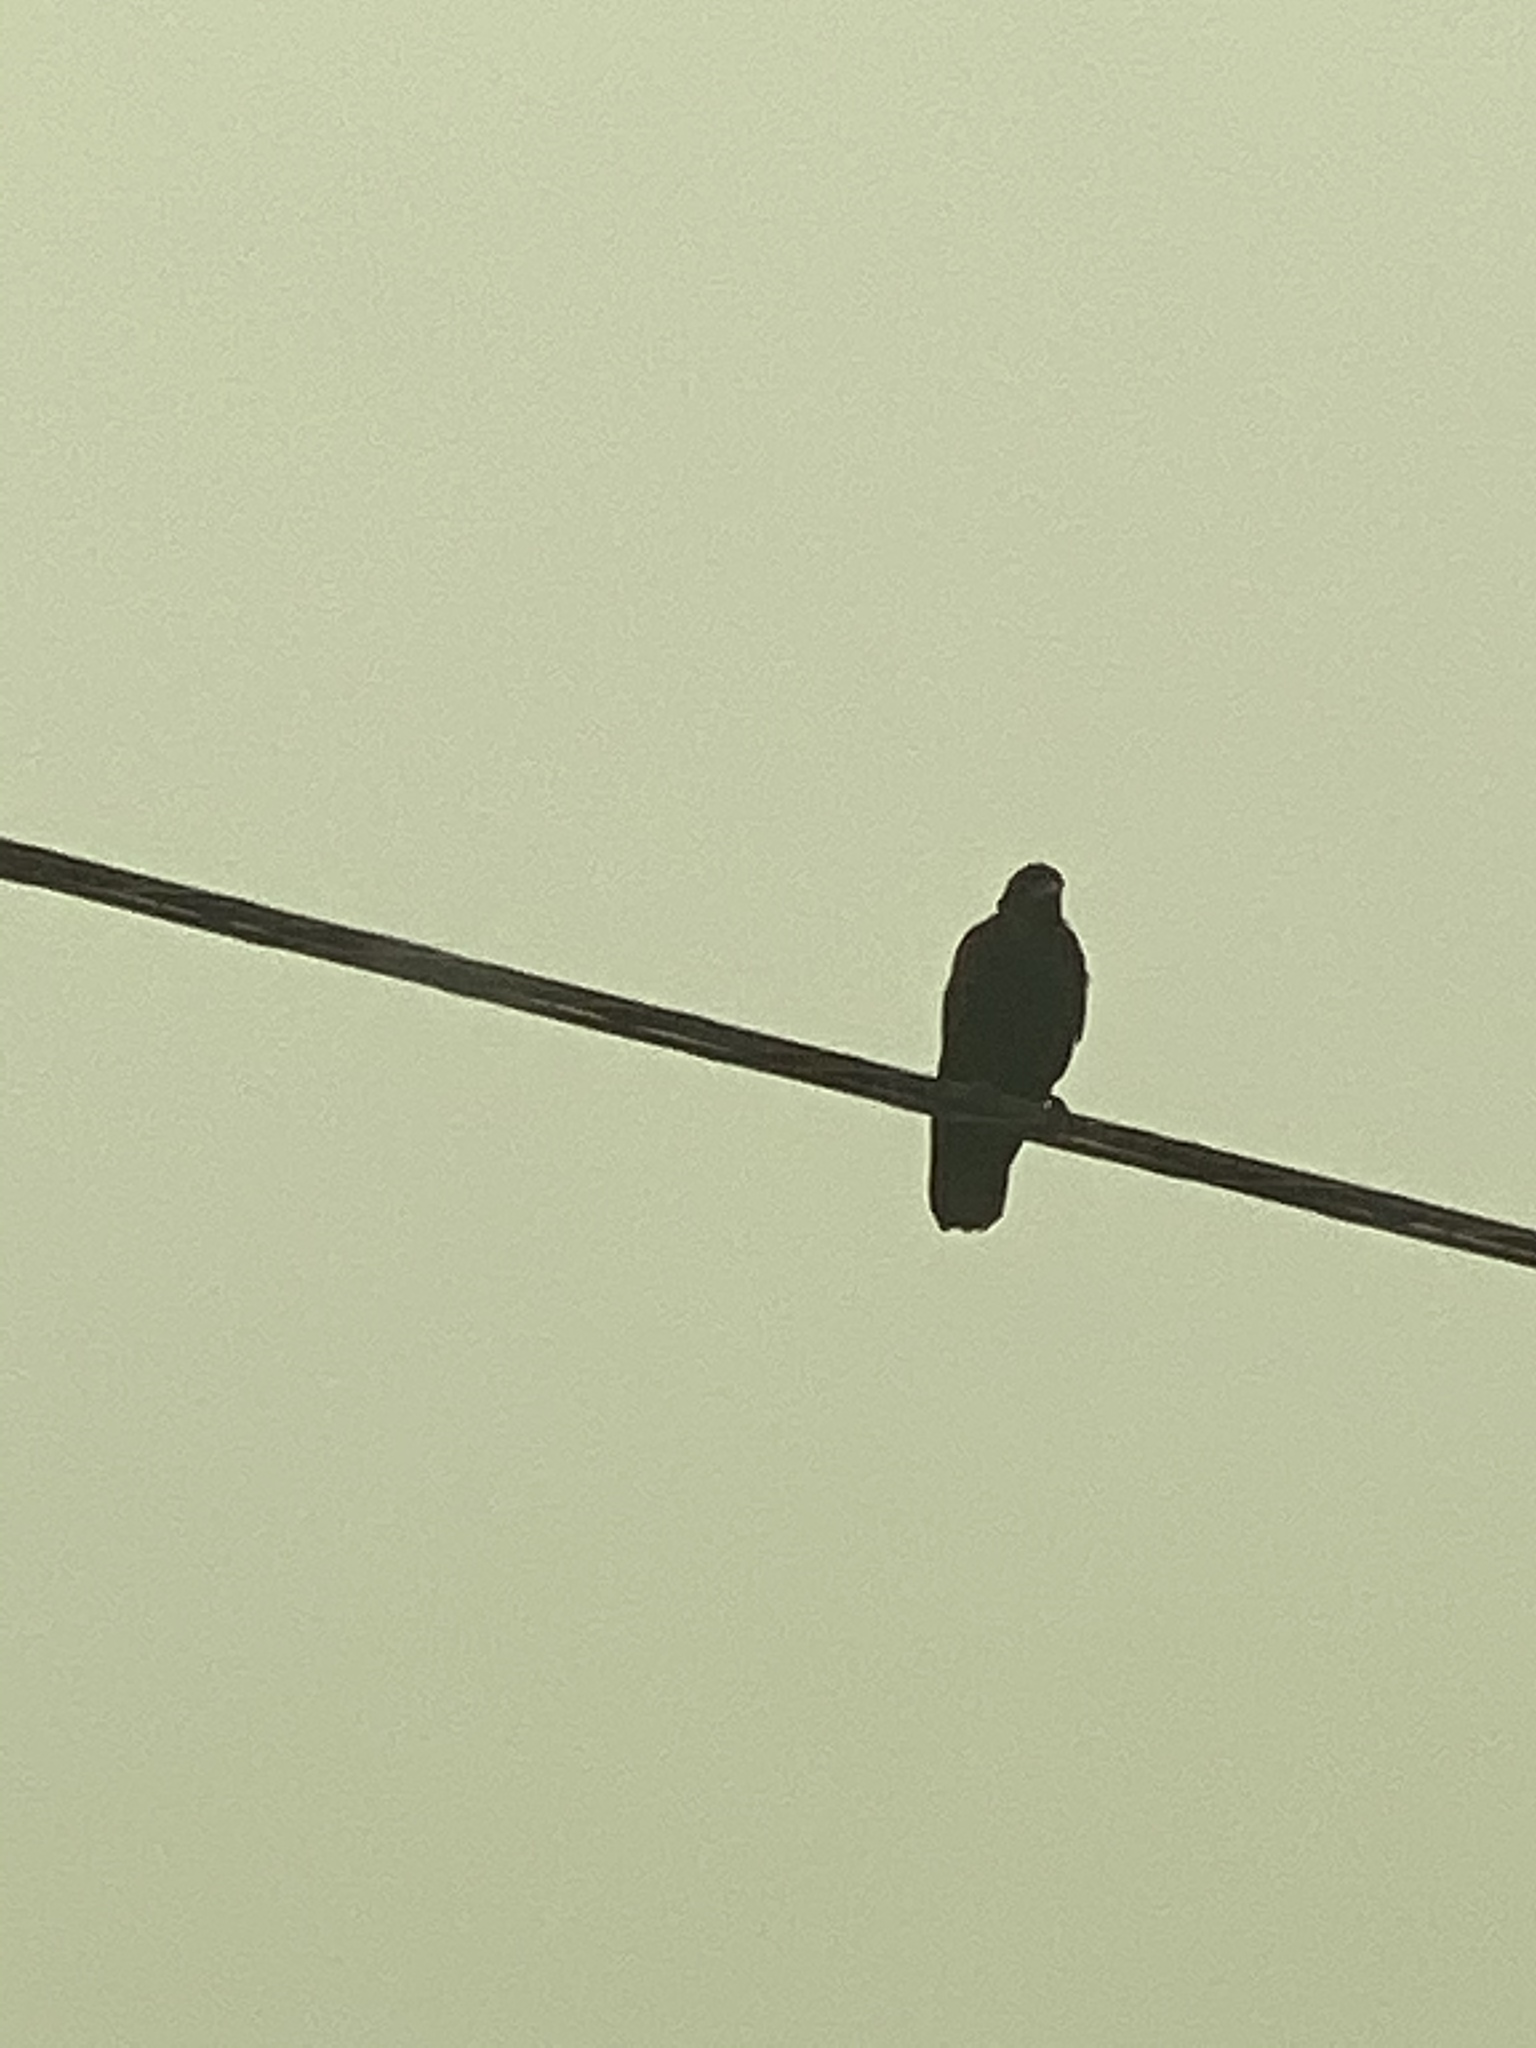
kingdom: Animalia
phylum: Chordata
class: Aves
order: Passeriformes
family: Corvidae
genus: Corvus
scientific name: Corvus brachyrhynchos
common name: American crow
